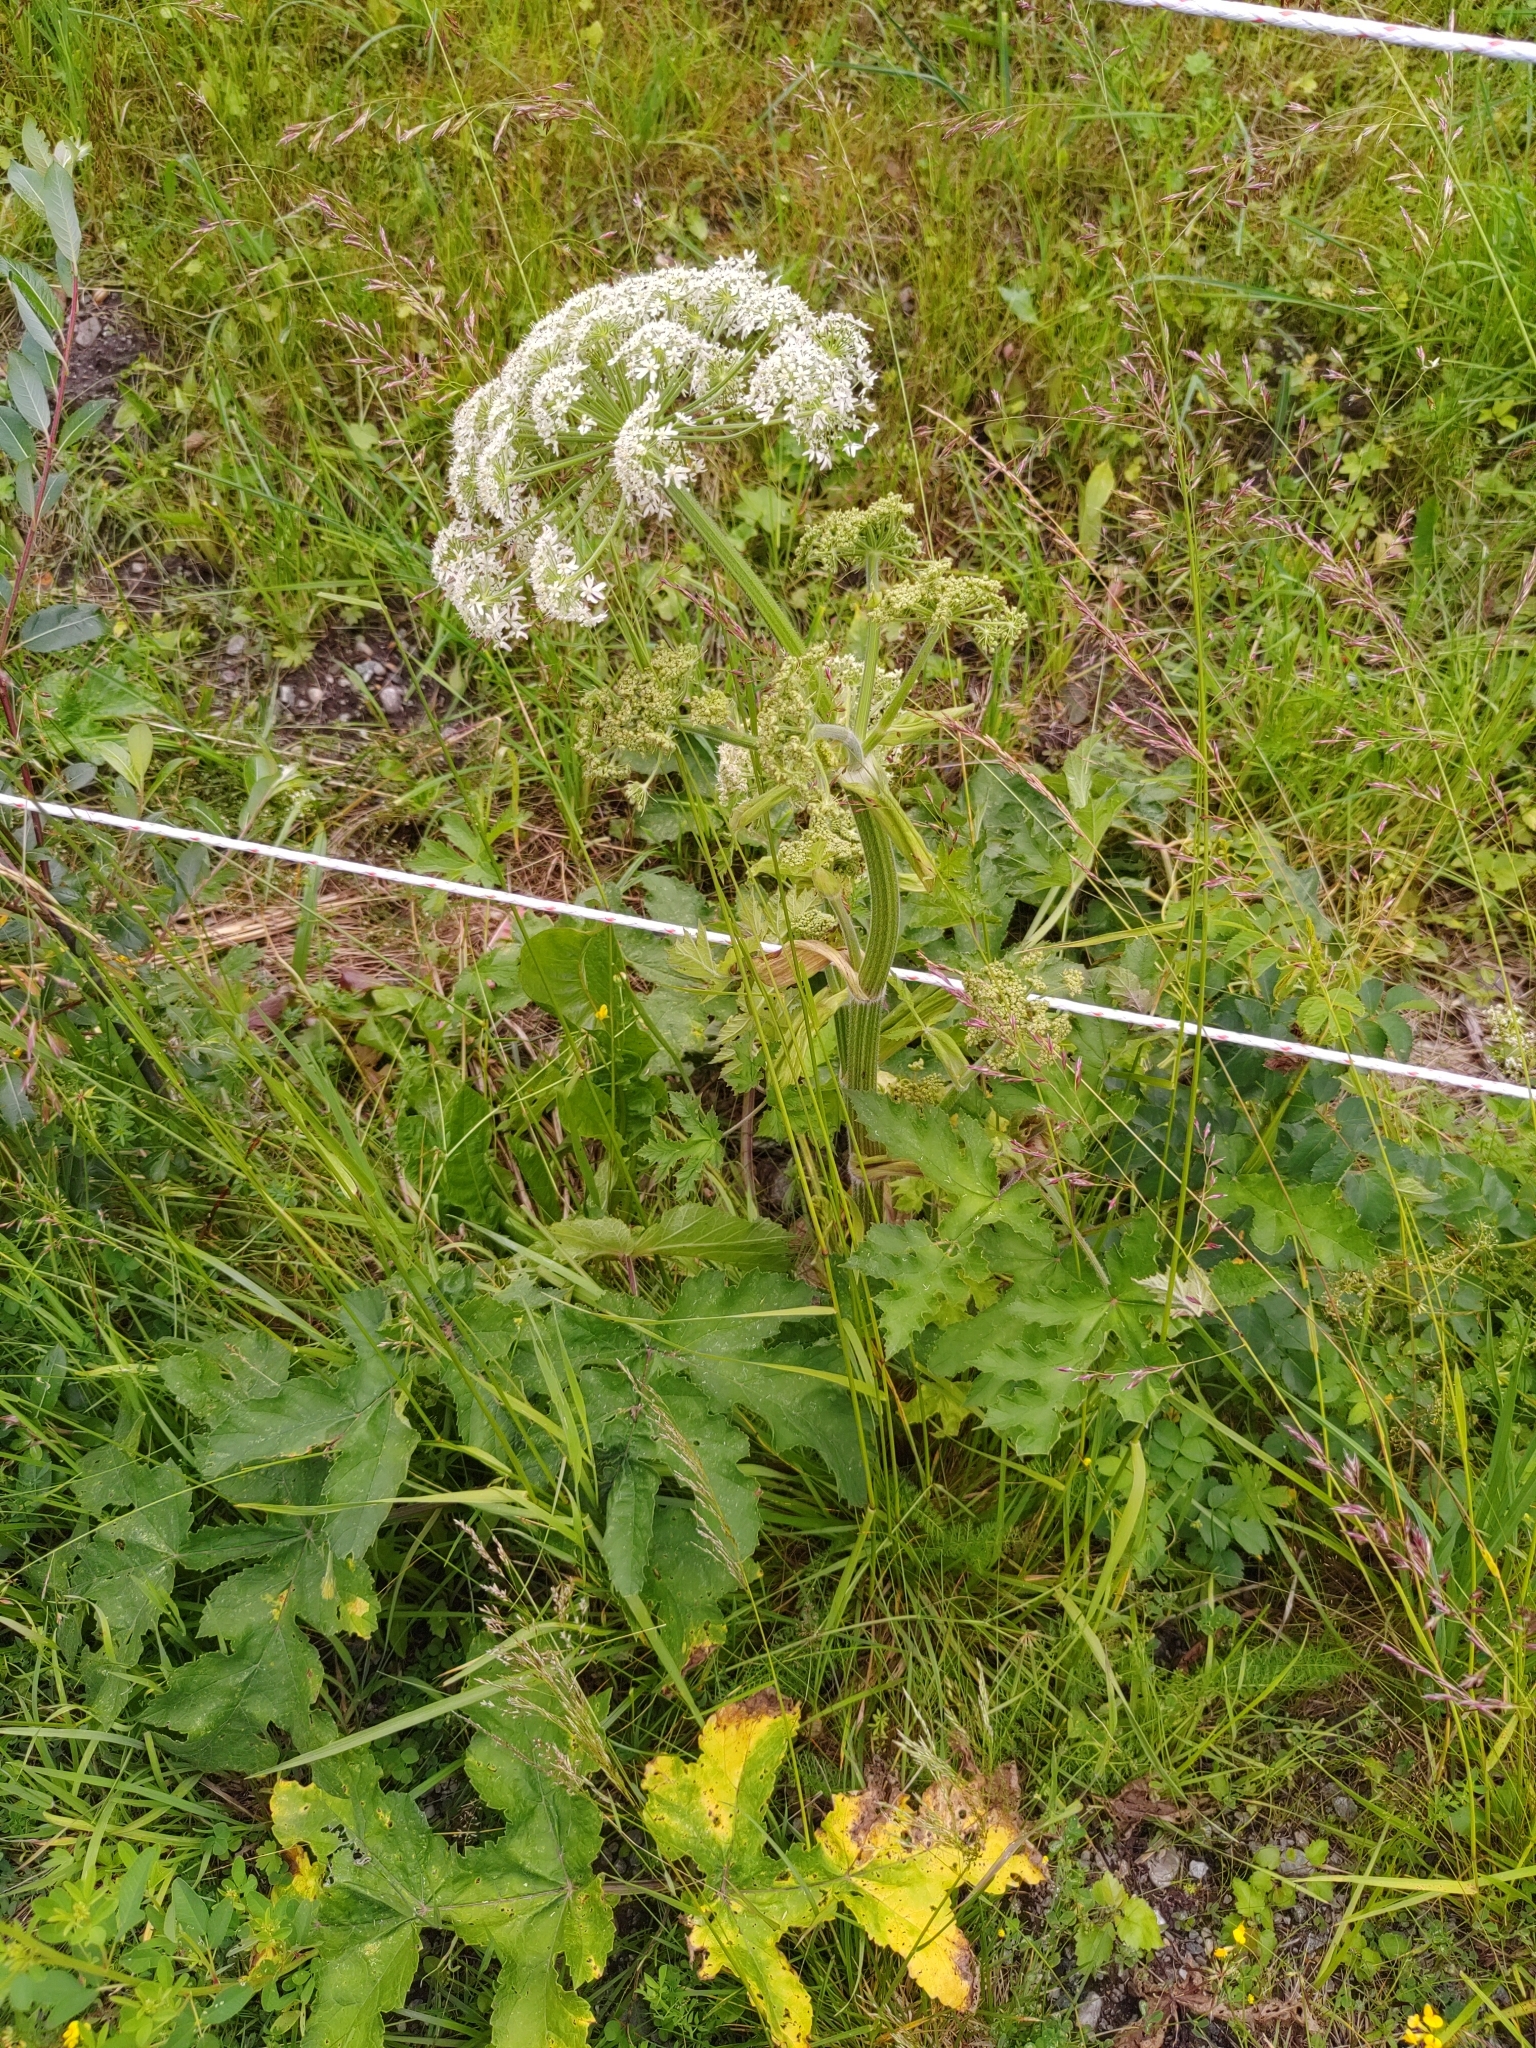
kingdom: Plantae
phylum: Tracheophyta
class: Magnoliopsida
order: Apiales
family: Apiaceae
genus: Heracleum
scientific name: Heracleum sphondylium
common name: Hogweed
